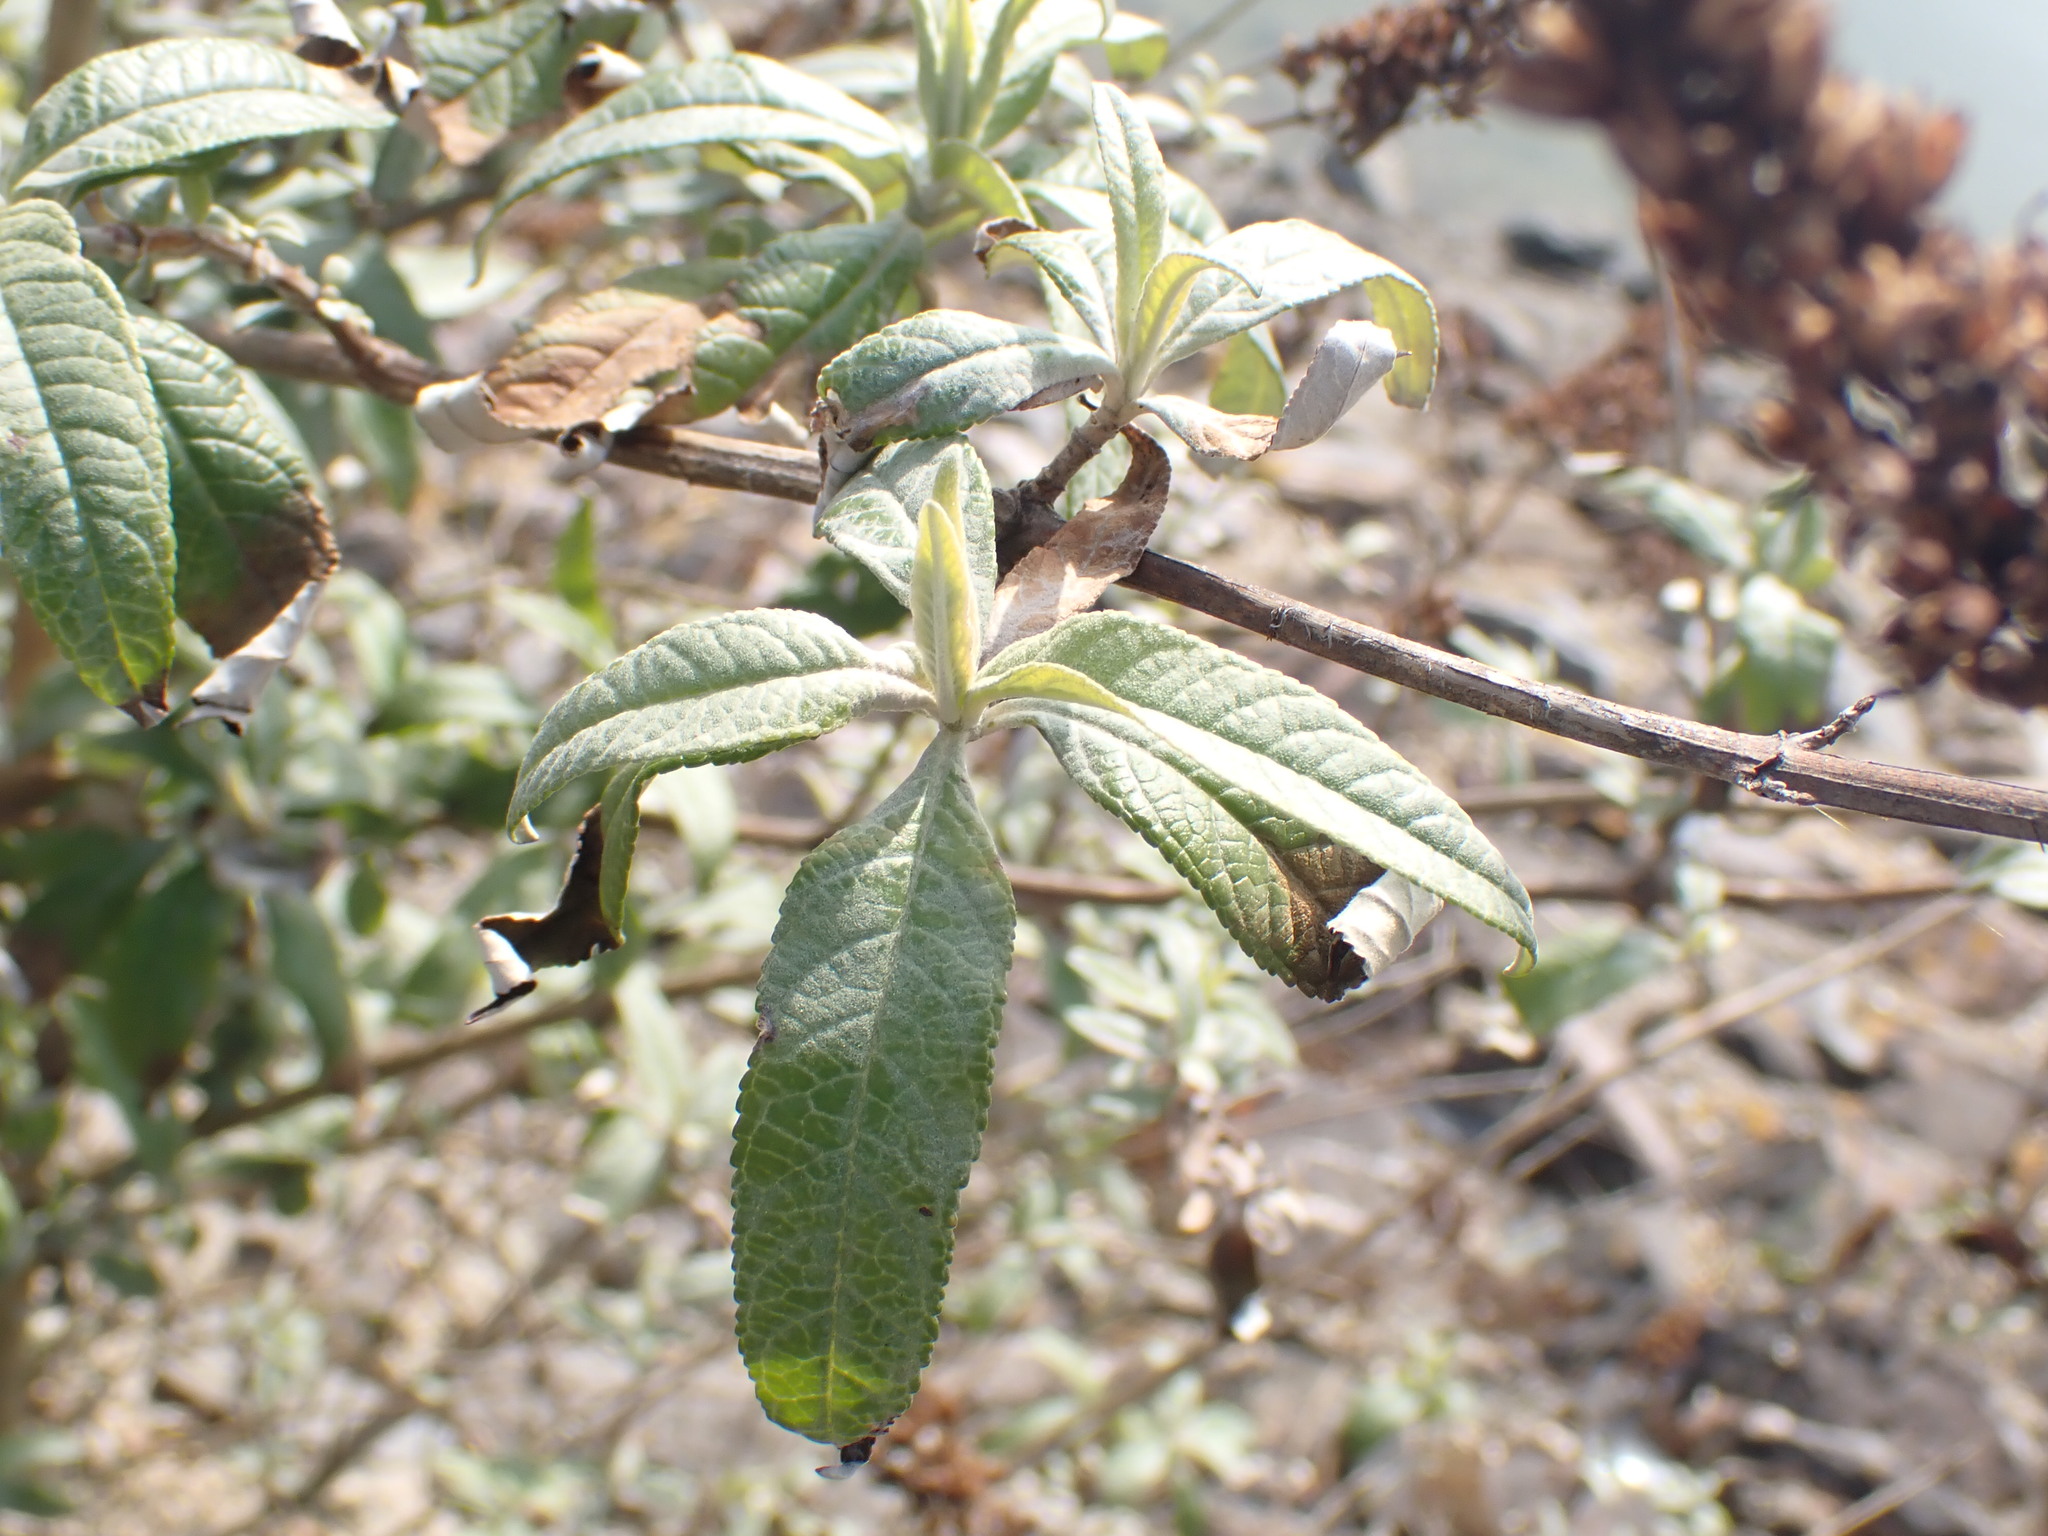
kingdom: Plantae
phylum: Tracheophyta
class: Magnoliopsida
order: Lamiales
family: Scrophulariaceae
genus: Buddleja
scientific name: Buddleja davidii
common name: Butterfly-bush
